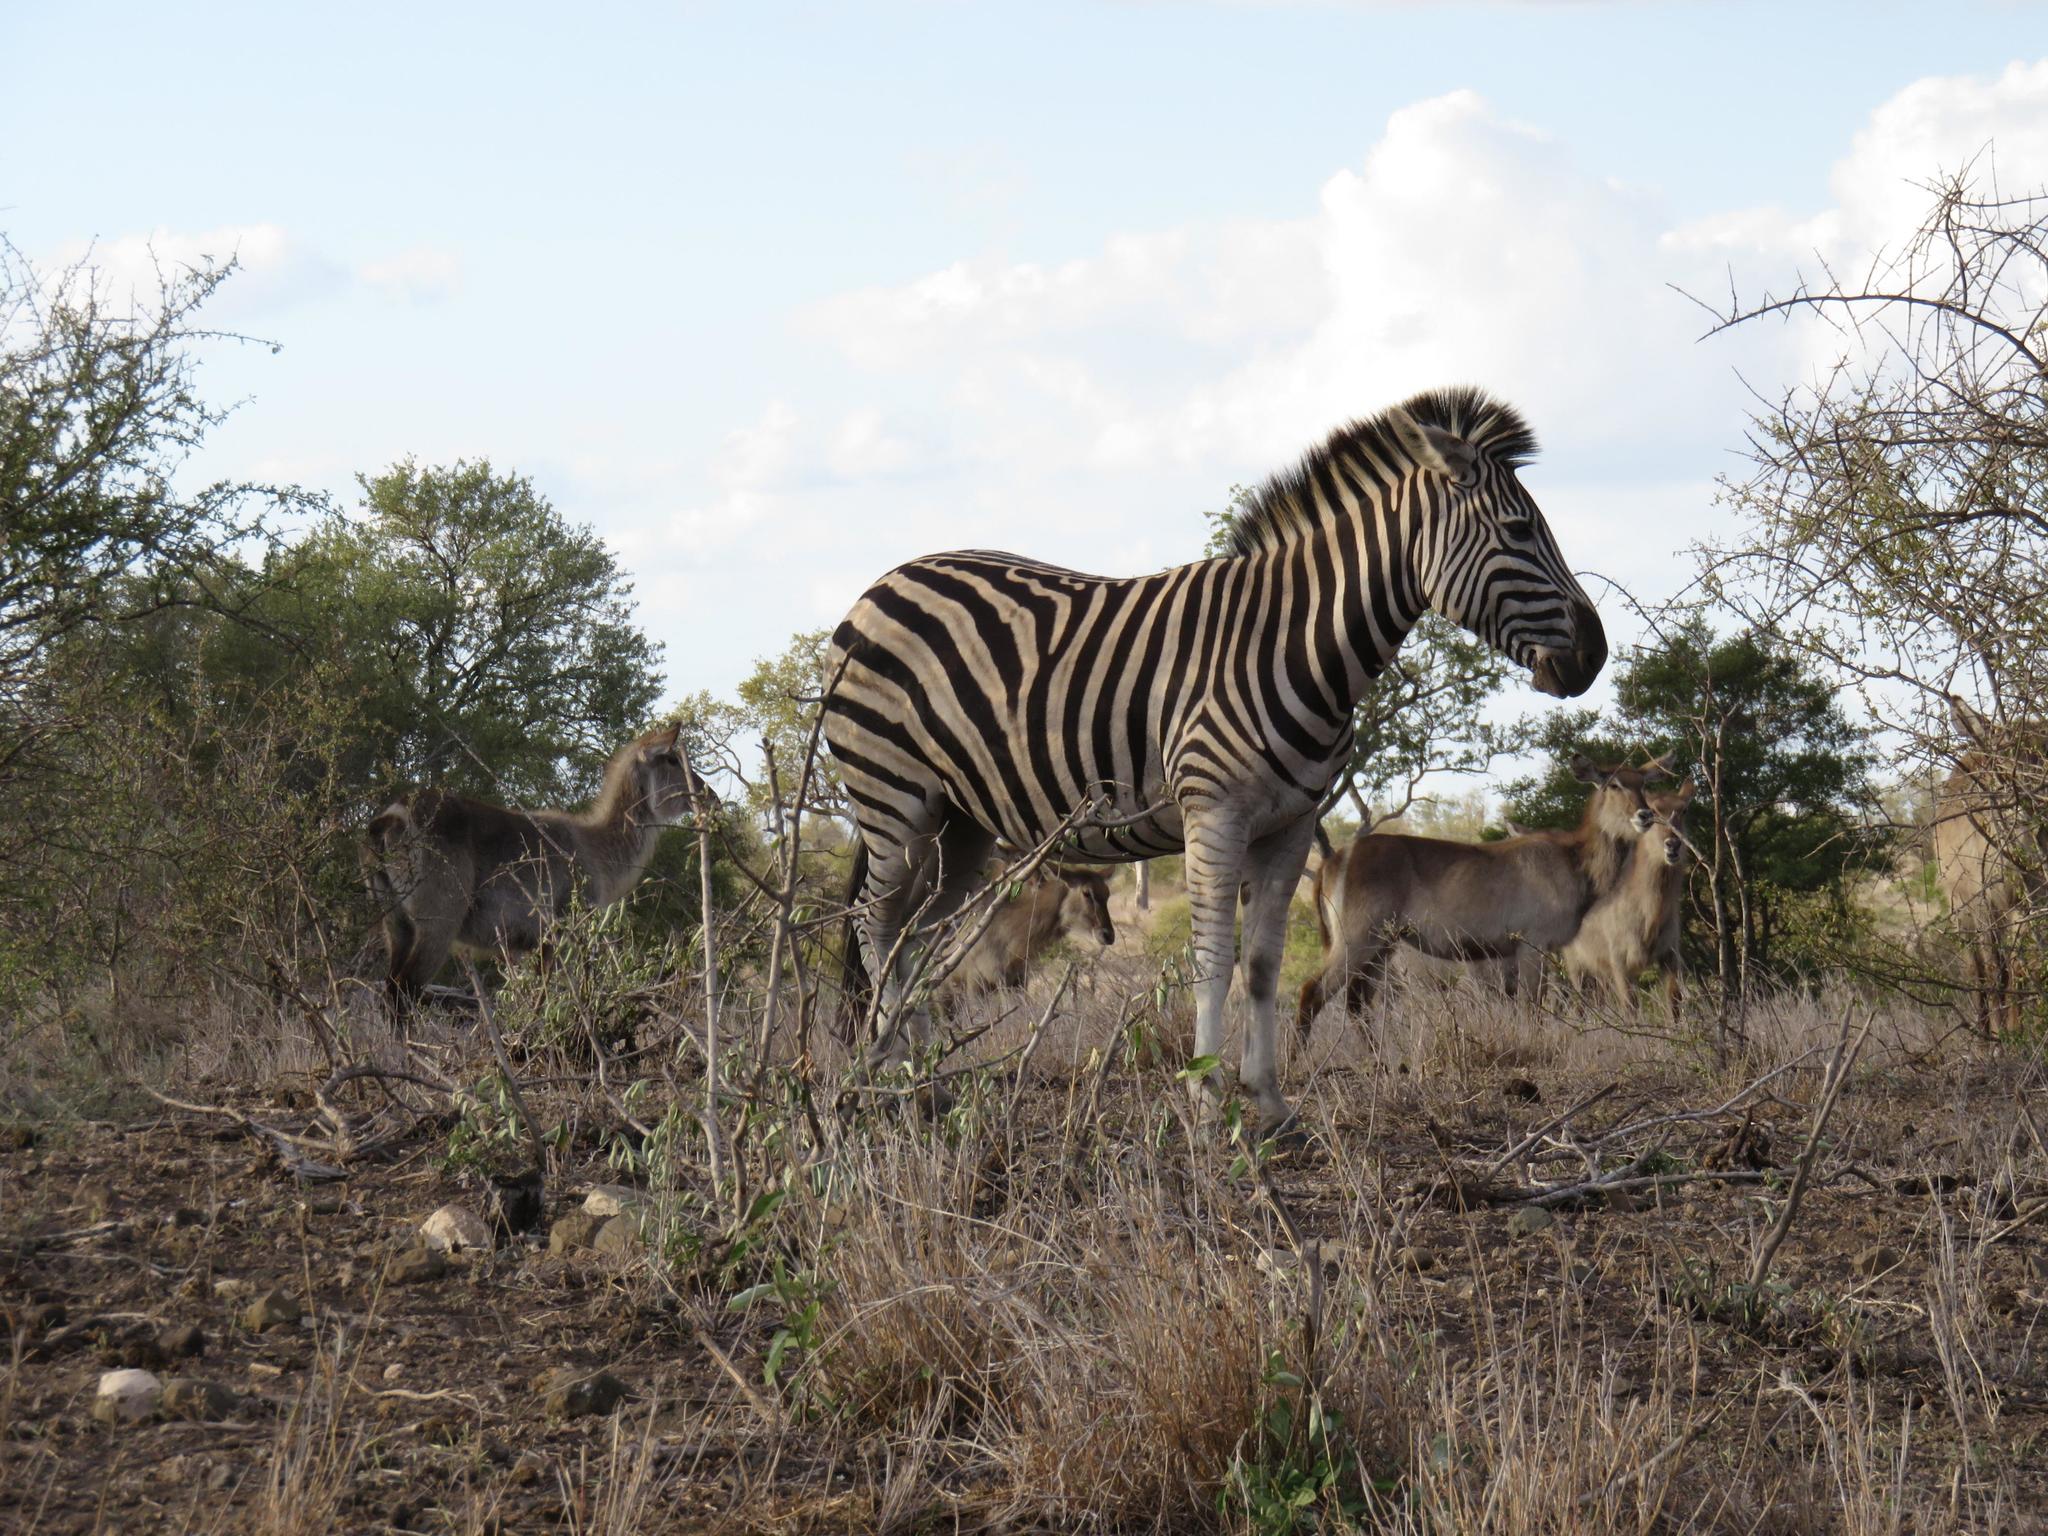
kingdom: Animalia
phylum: Chordata
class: Mammalia
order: Perissodactyla
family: Equidae
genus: Equus
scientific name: Equus quagga
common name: Plains zebra
